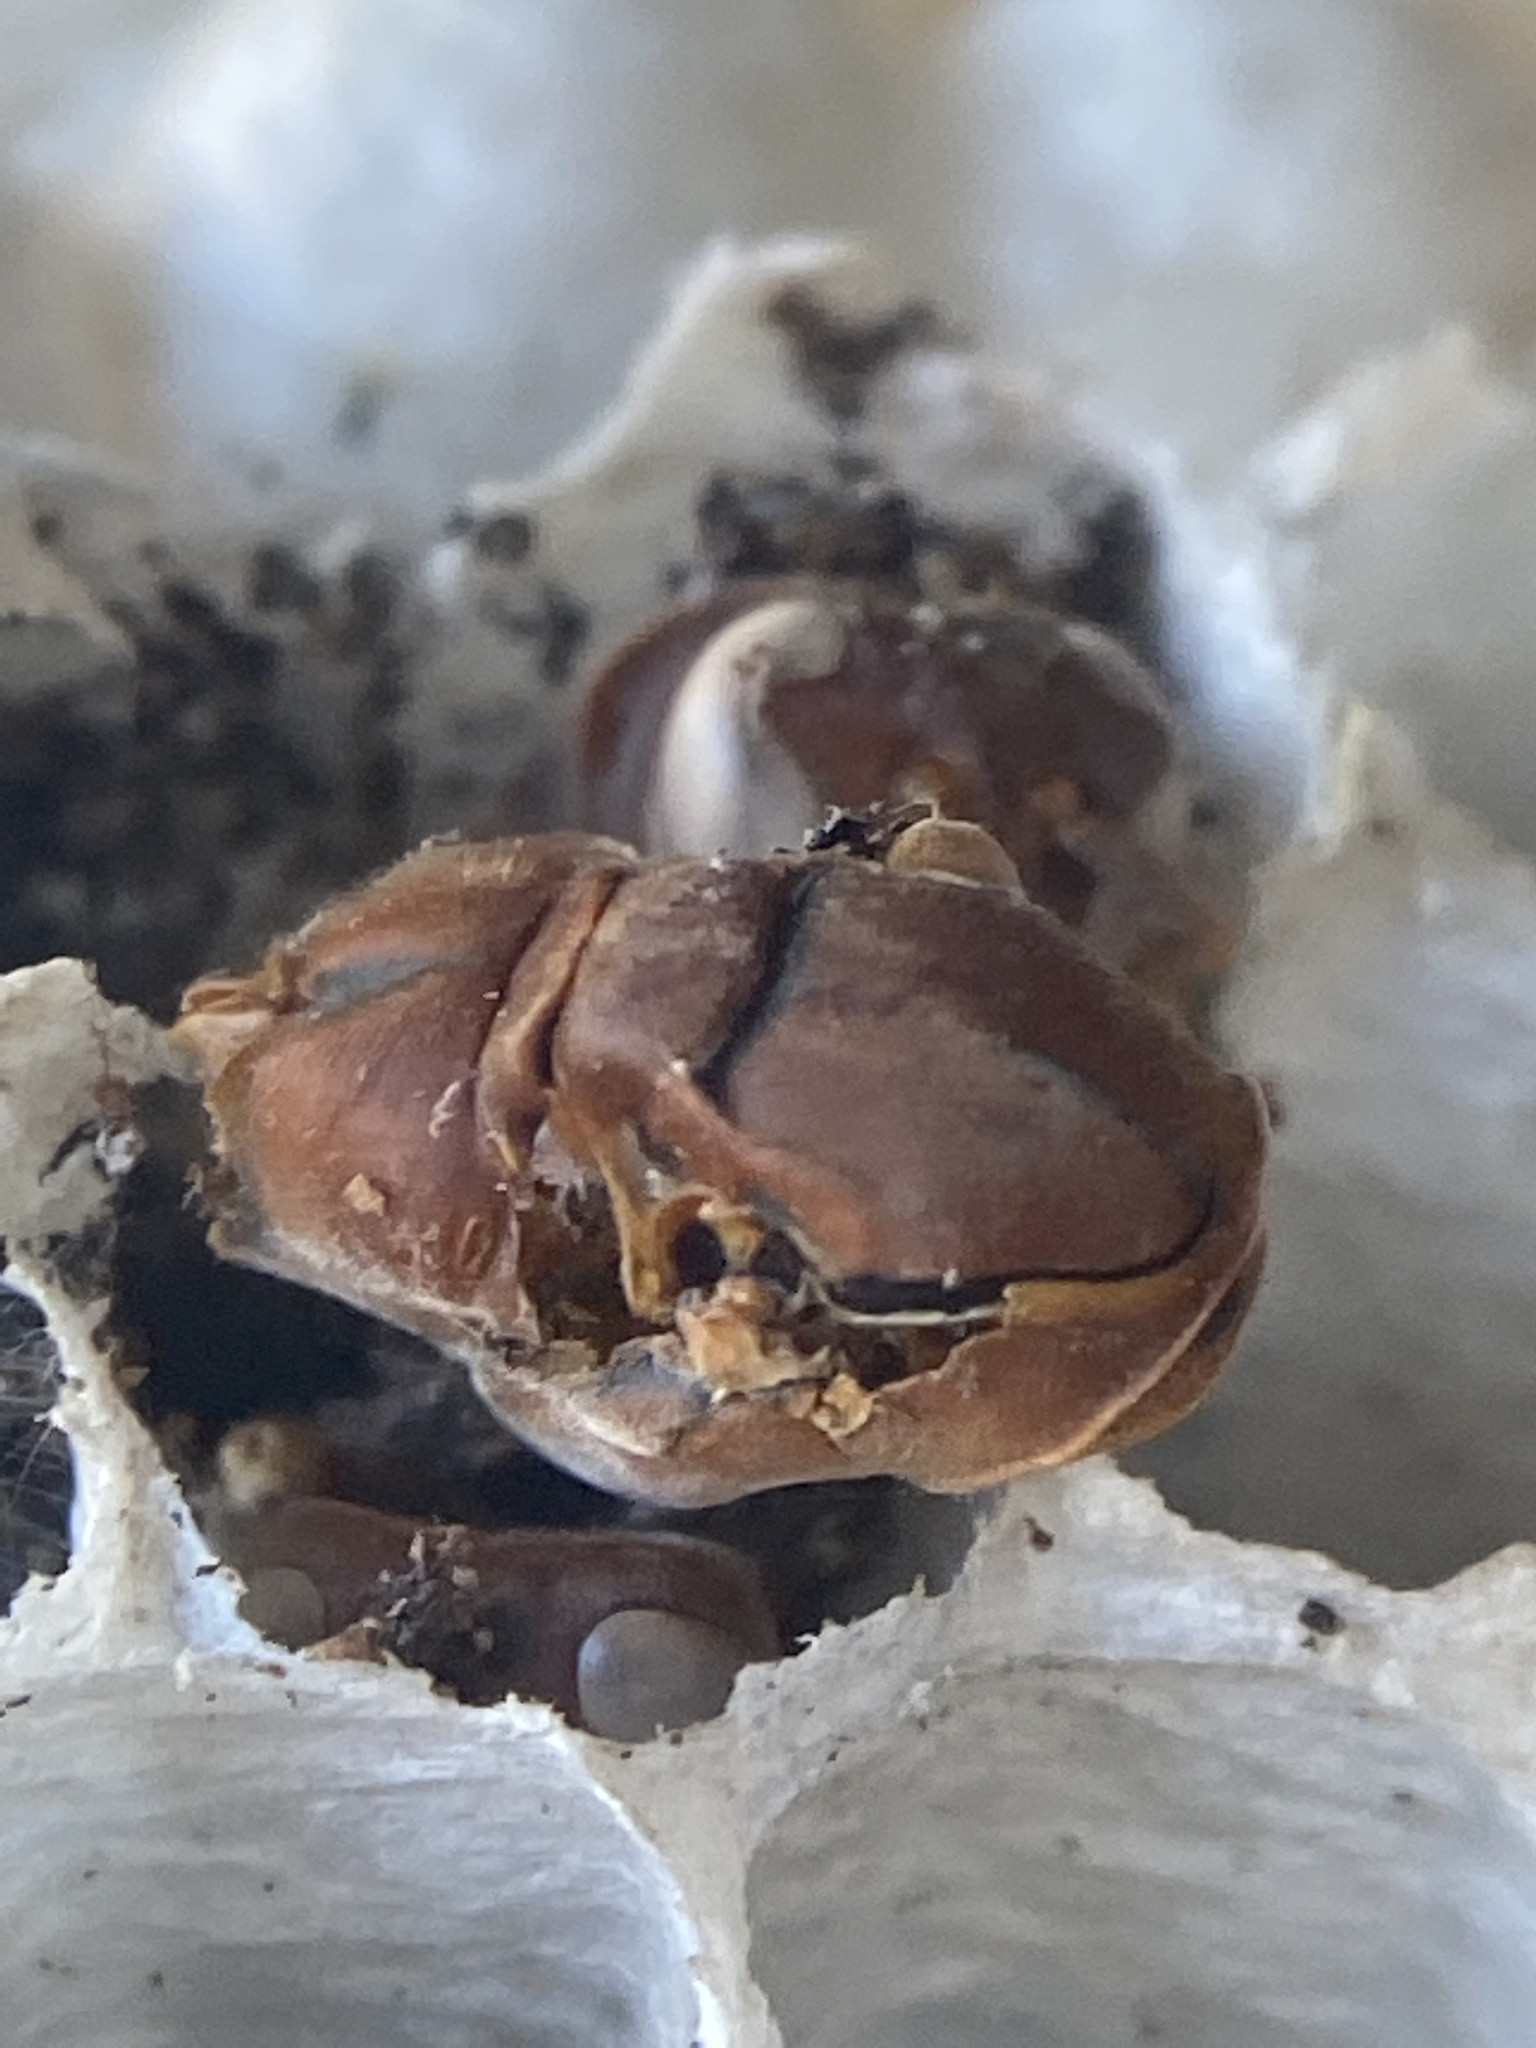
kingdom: Animalia
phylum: Arthropoda
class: Insecta
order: Hymenoptera
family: Eumenidae
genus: Polistes
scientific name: Polistes annularis
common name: Ringed paper wasp
